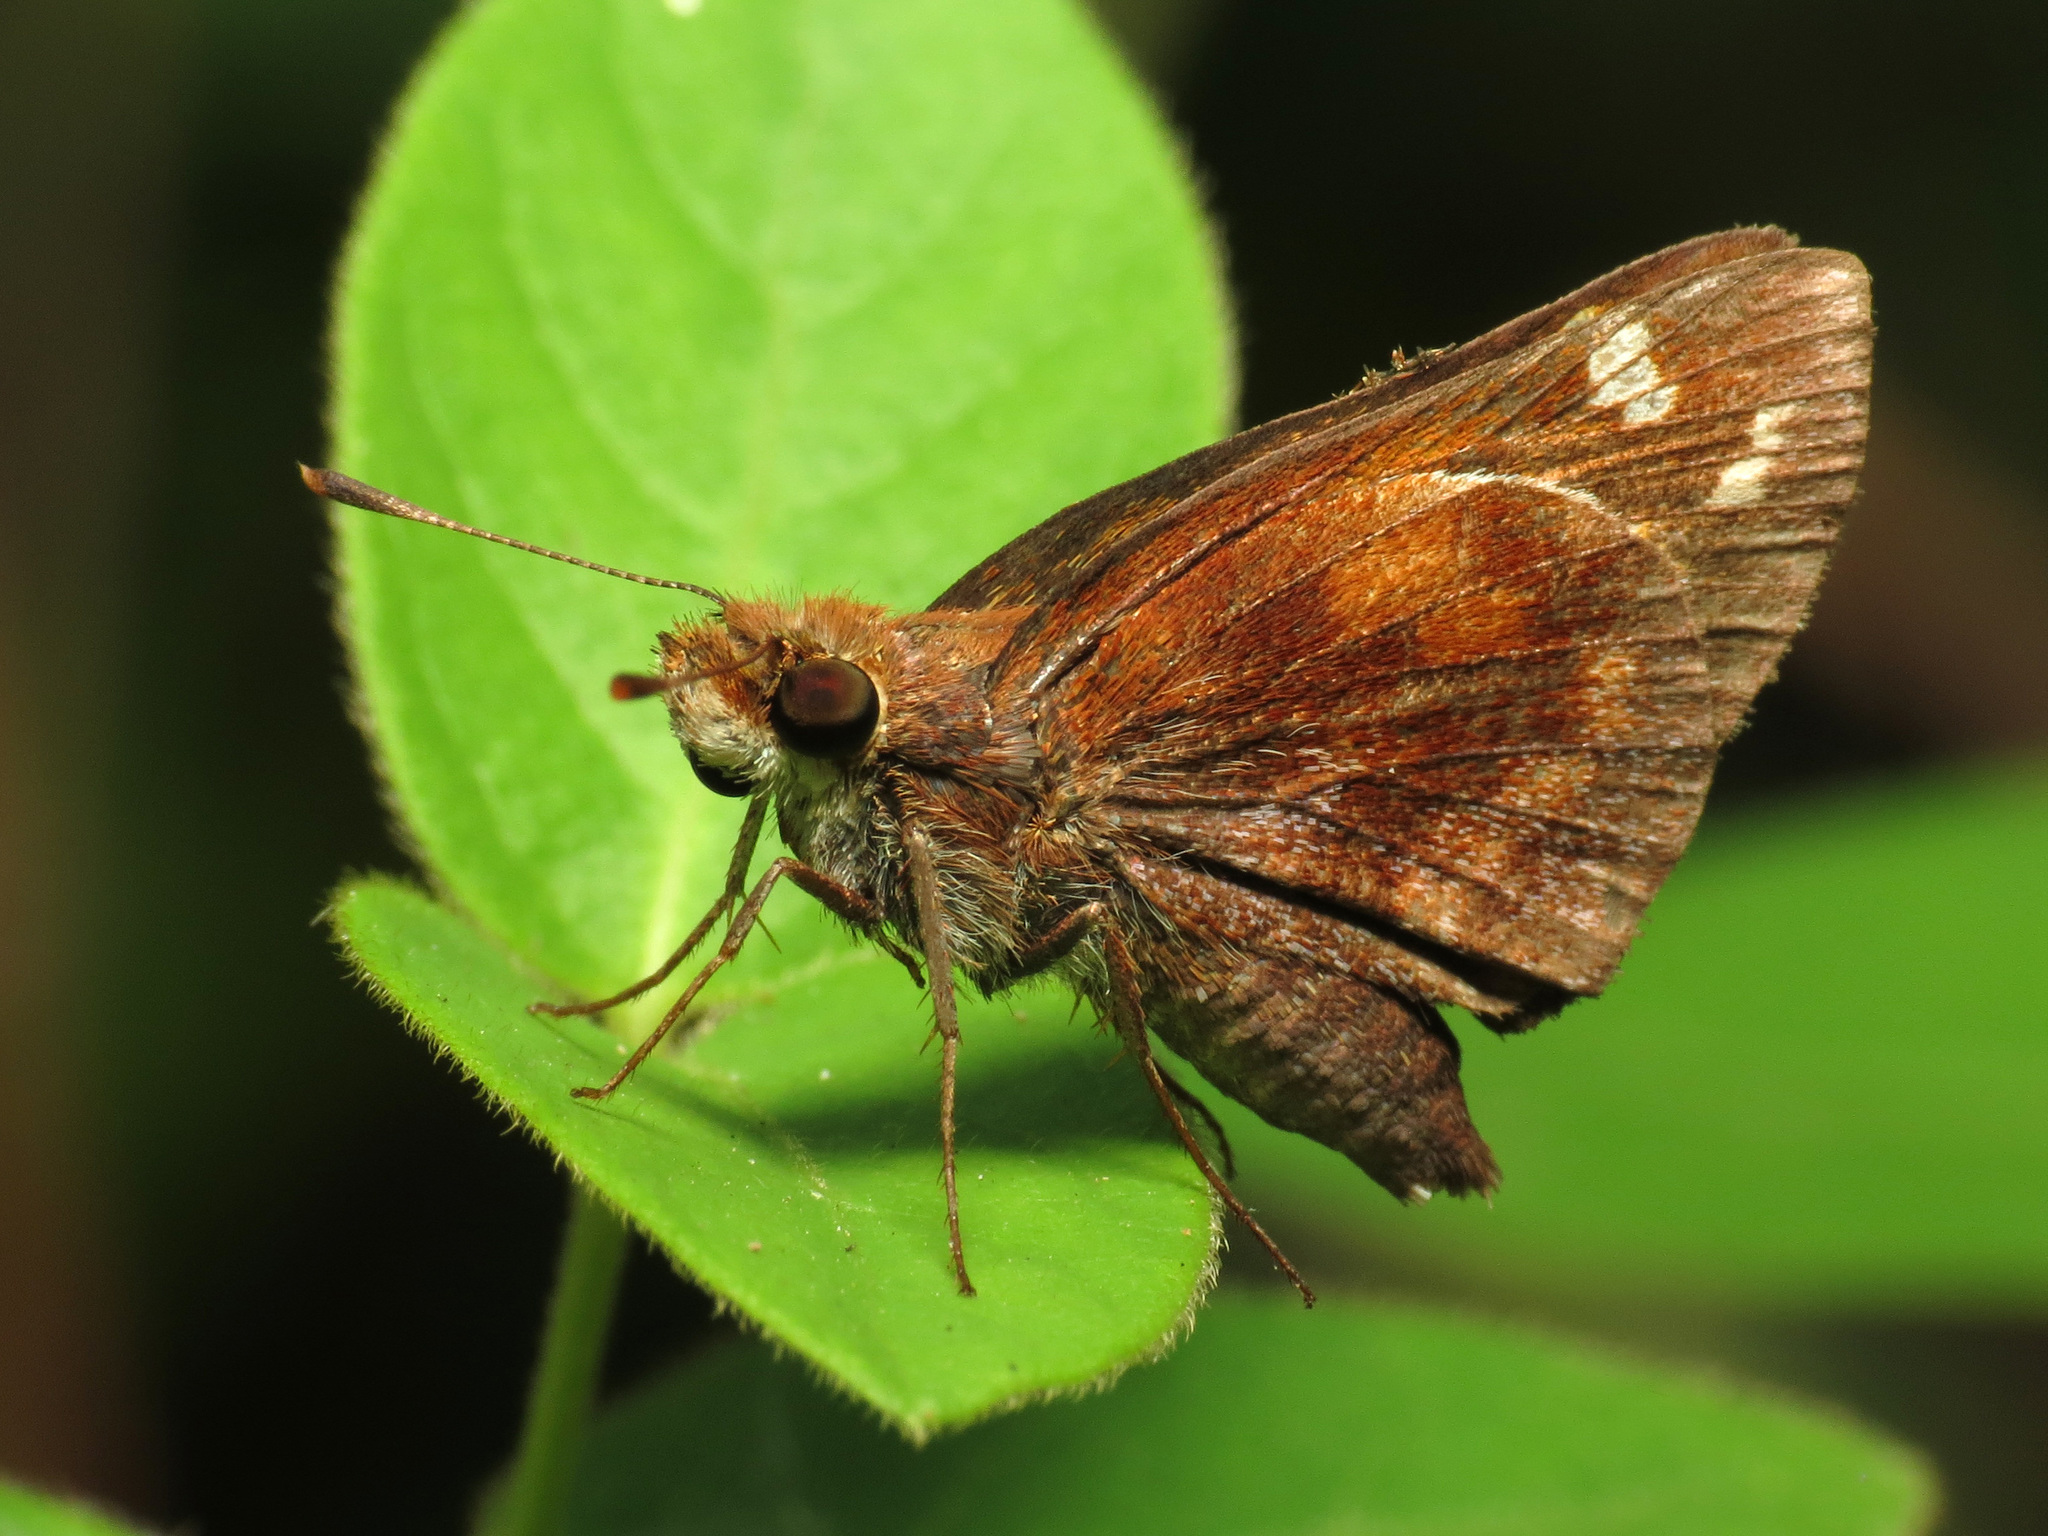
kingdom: Animalia
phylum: Arthropoda
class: Insecta
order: Lepidoptera
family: Hesperiidae
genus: Lon
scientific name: Lon zabulon
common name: Zabulon skipper
